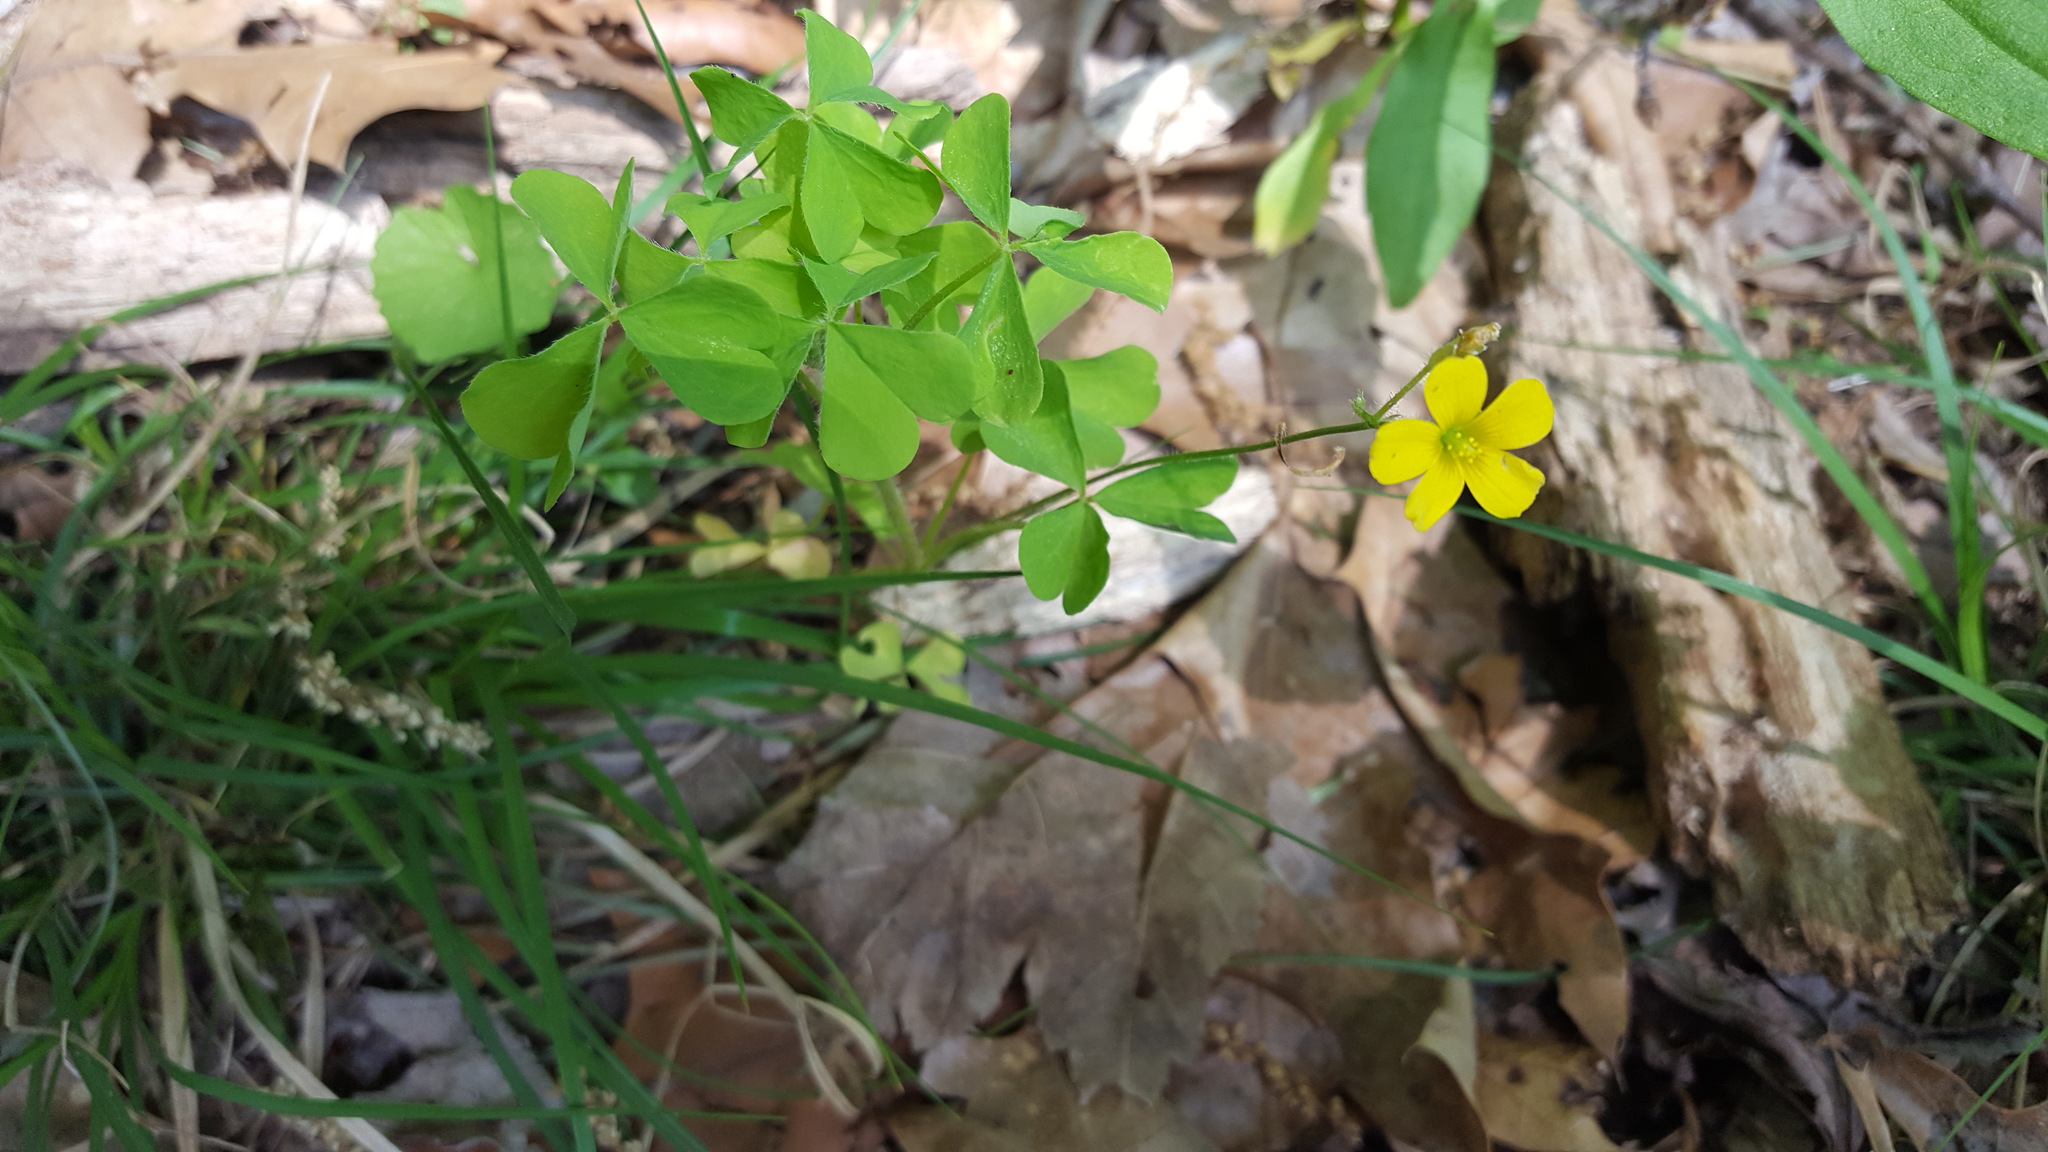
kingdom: Plantae
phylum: Tracheophyta
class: Magnoliopsida
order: Oxalidales
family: Oxalidaceae
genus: Oxalis
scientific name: Oxalis stricta
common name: Upright yellow-sorrel
